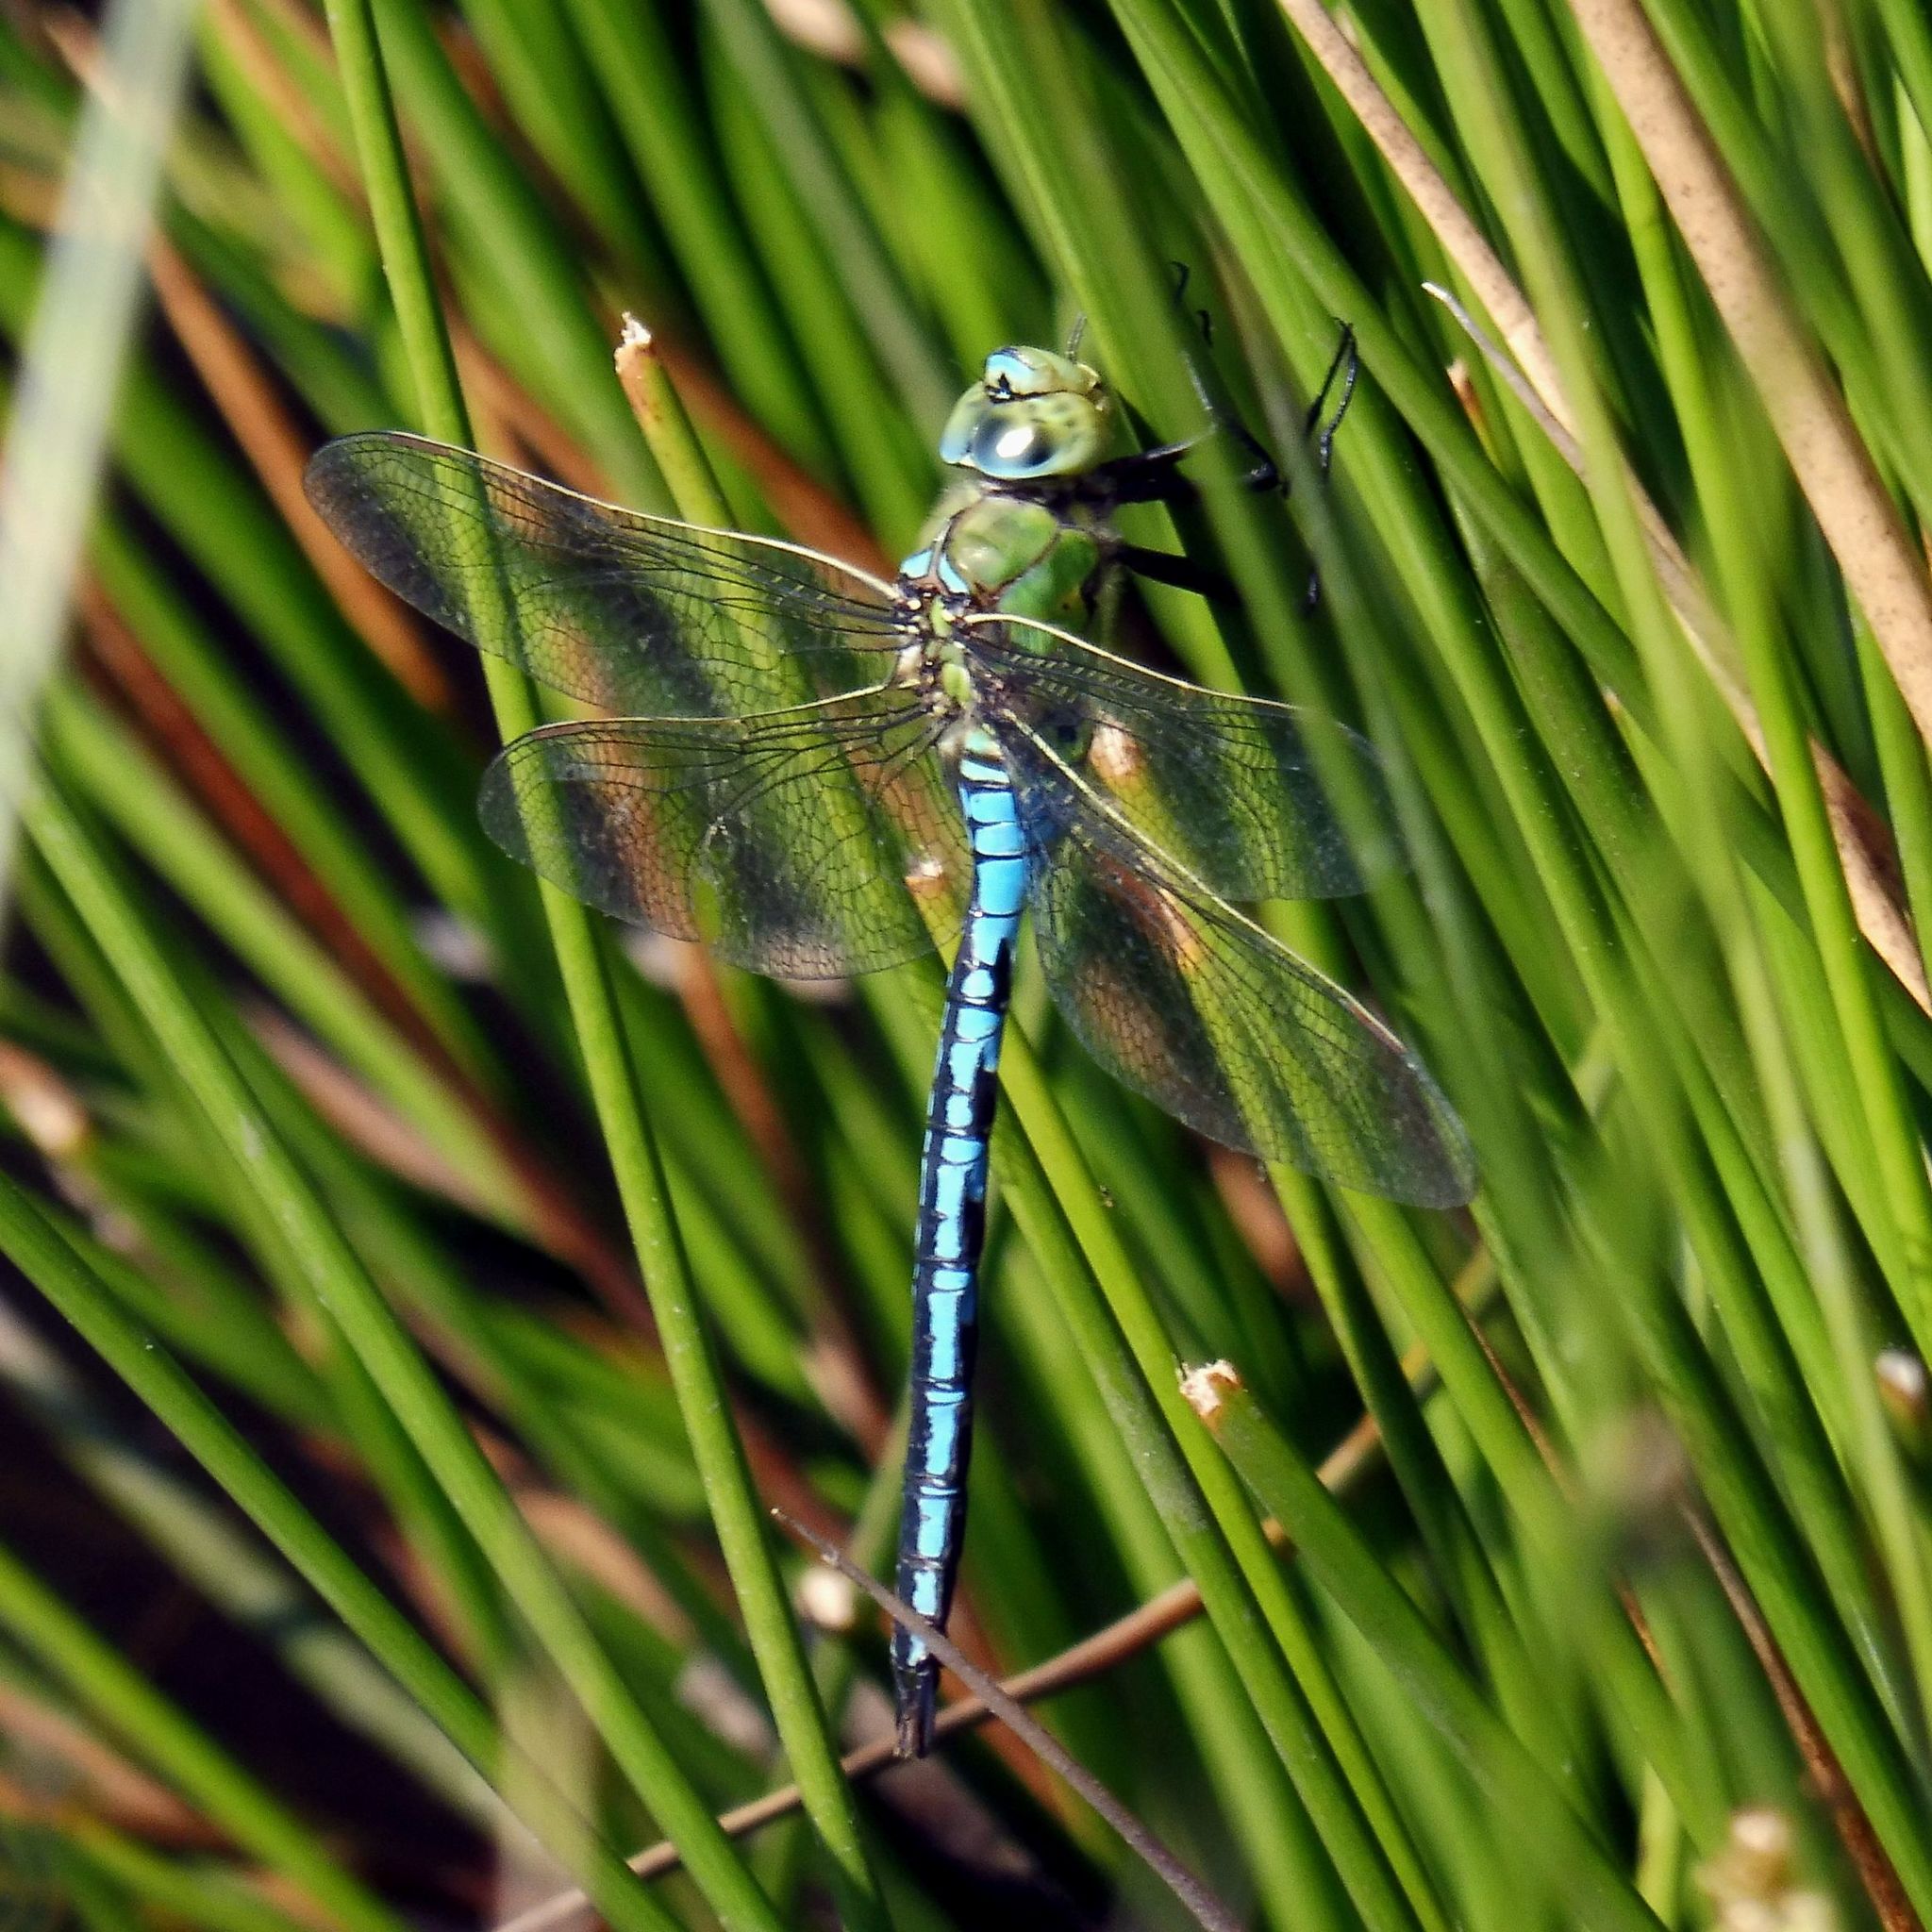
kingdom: Animalia
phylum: Arthropoda
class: Insecta
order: Odonata
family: Aeshnidae
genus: Anax
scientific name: Anax imperator
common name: Emperor dragonfly
